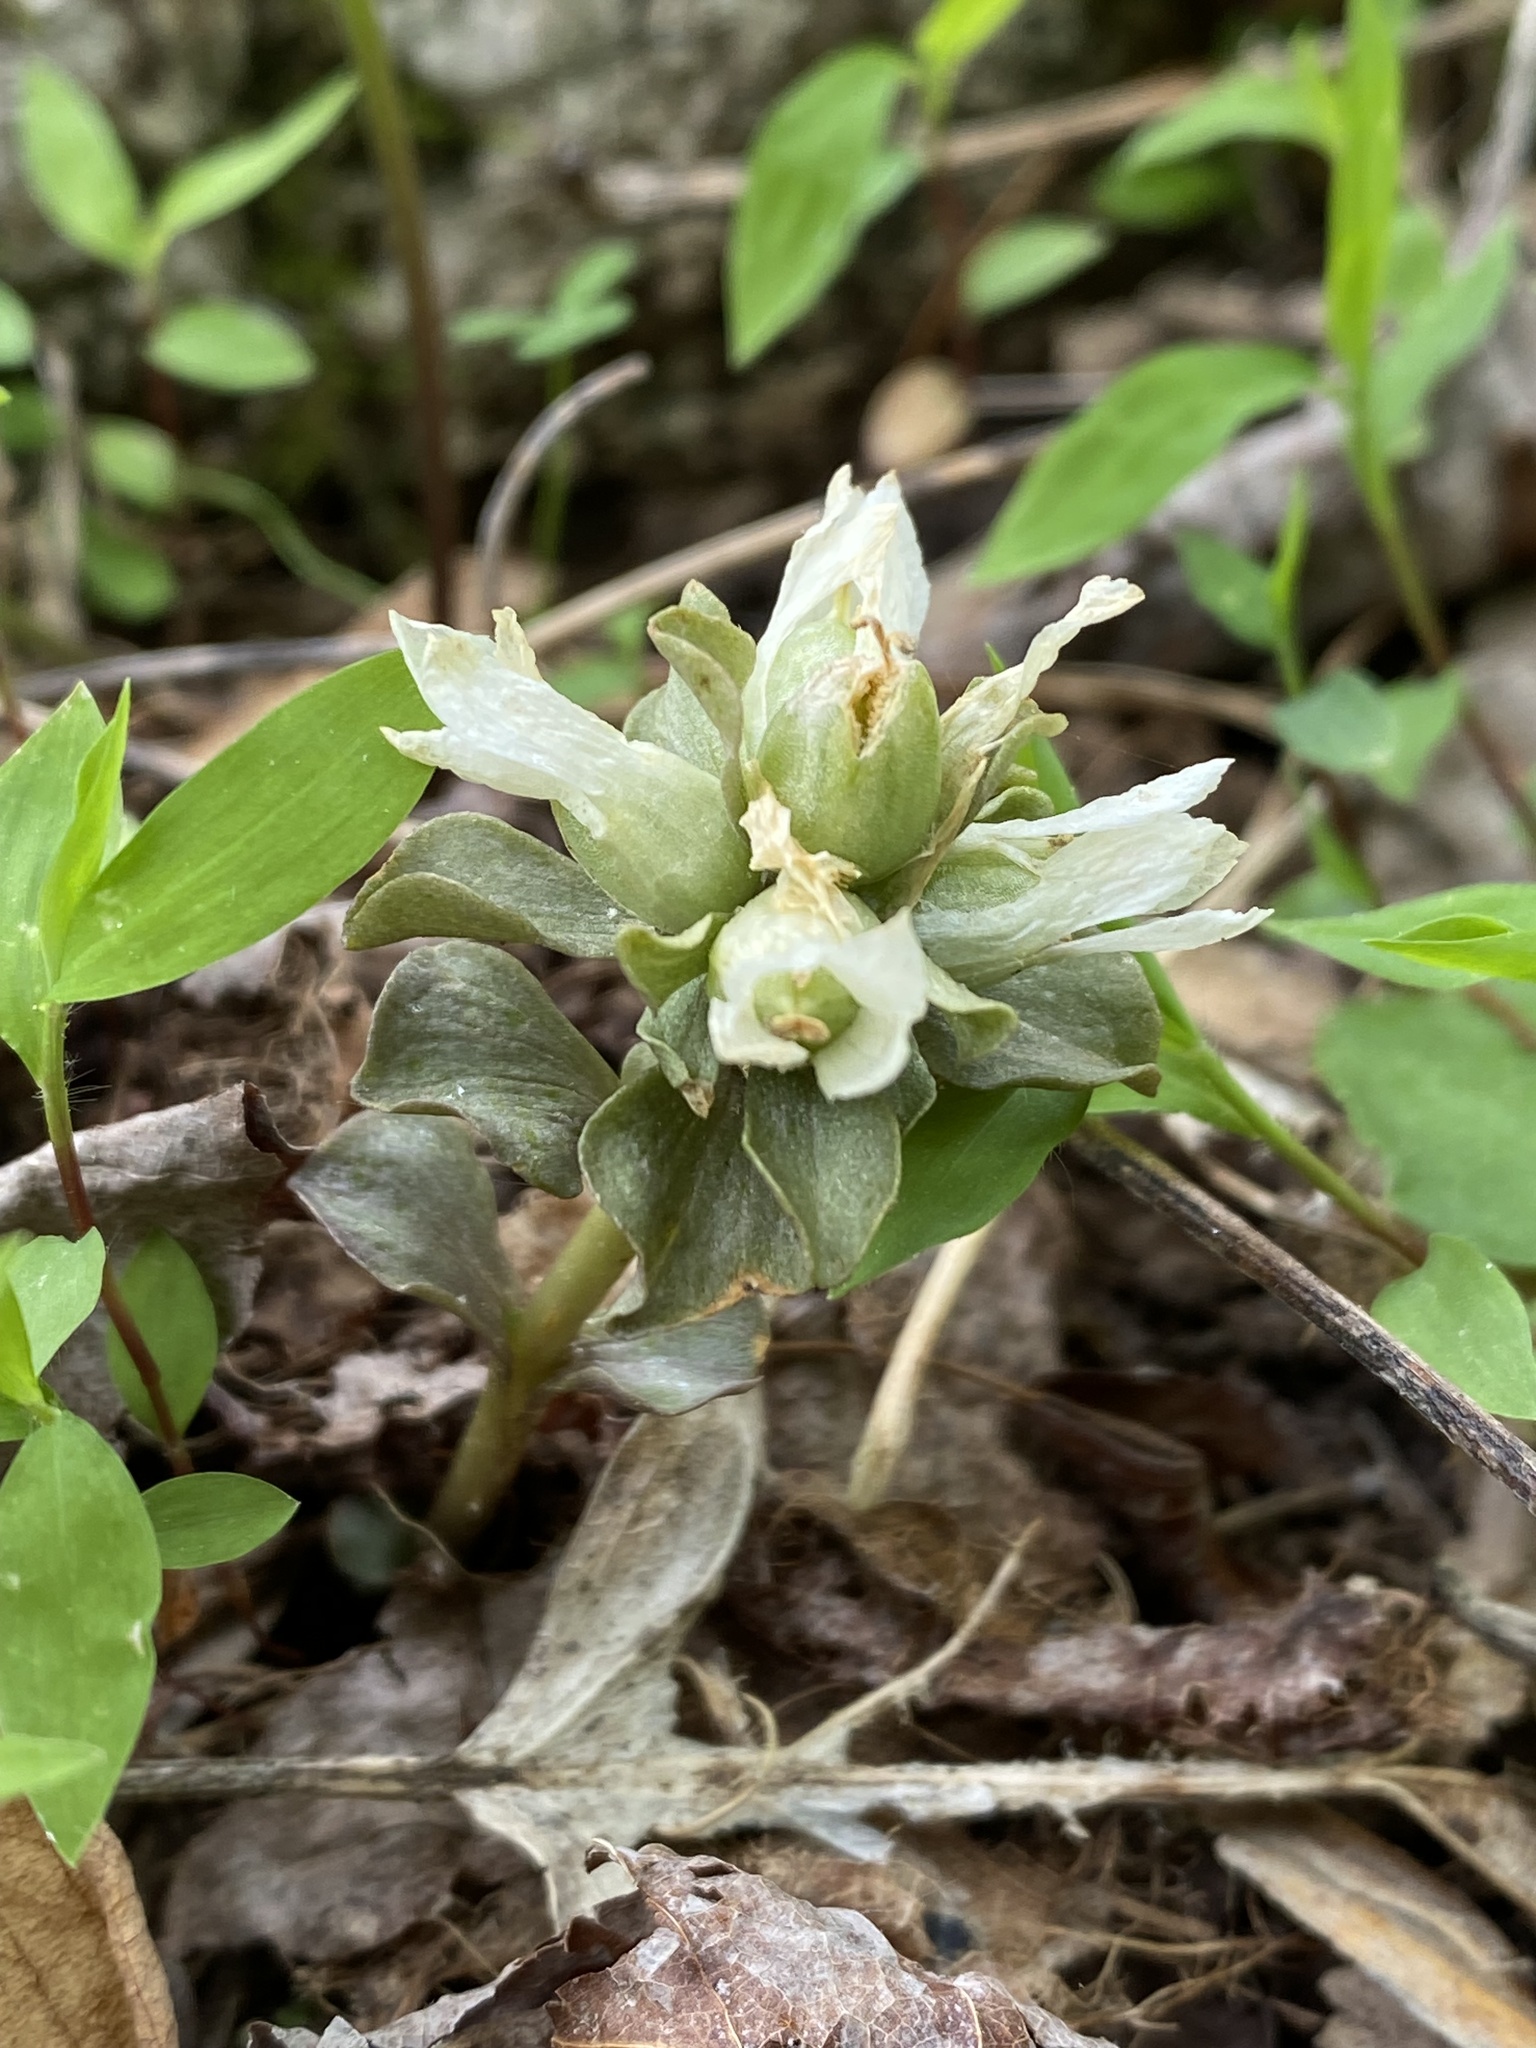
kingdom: Plantae
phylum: Tracheophyta
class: Magnoliopsida
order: Gentianales
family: Gentianaceae
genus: Obolaria
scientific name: Obolaria virginica
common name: Pennywort
